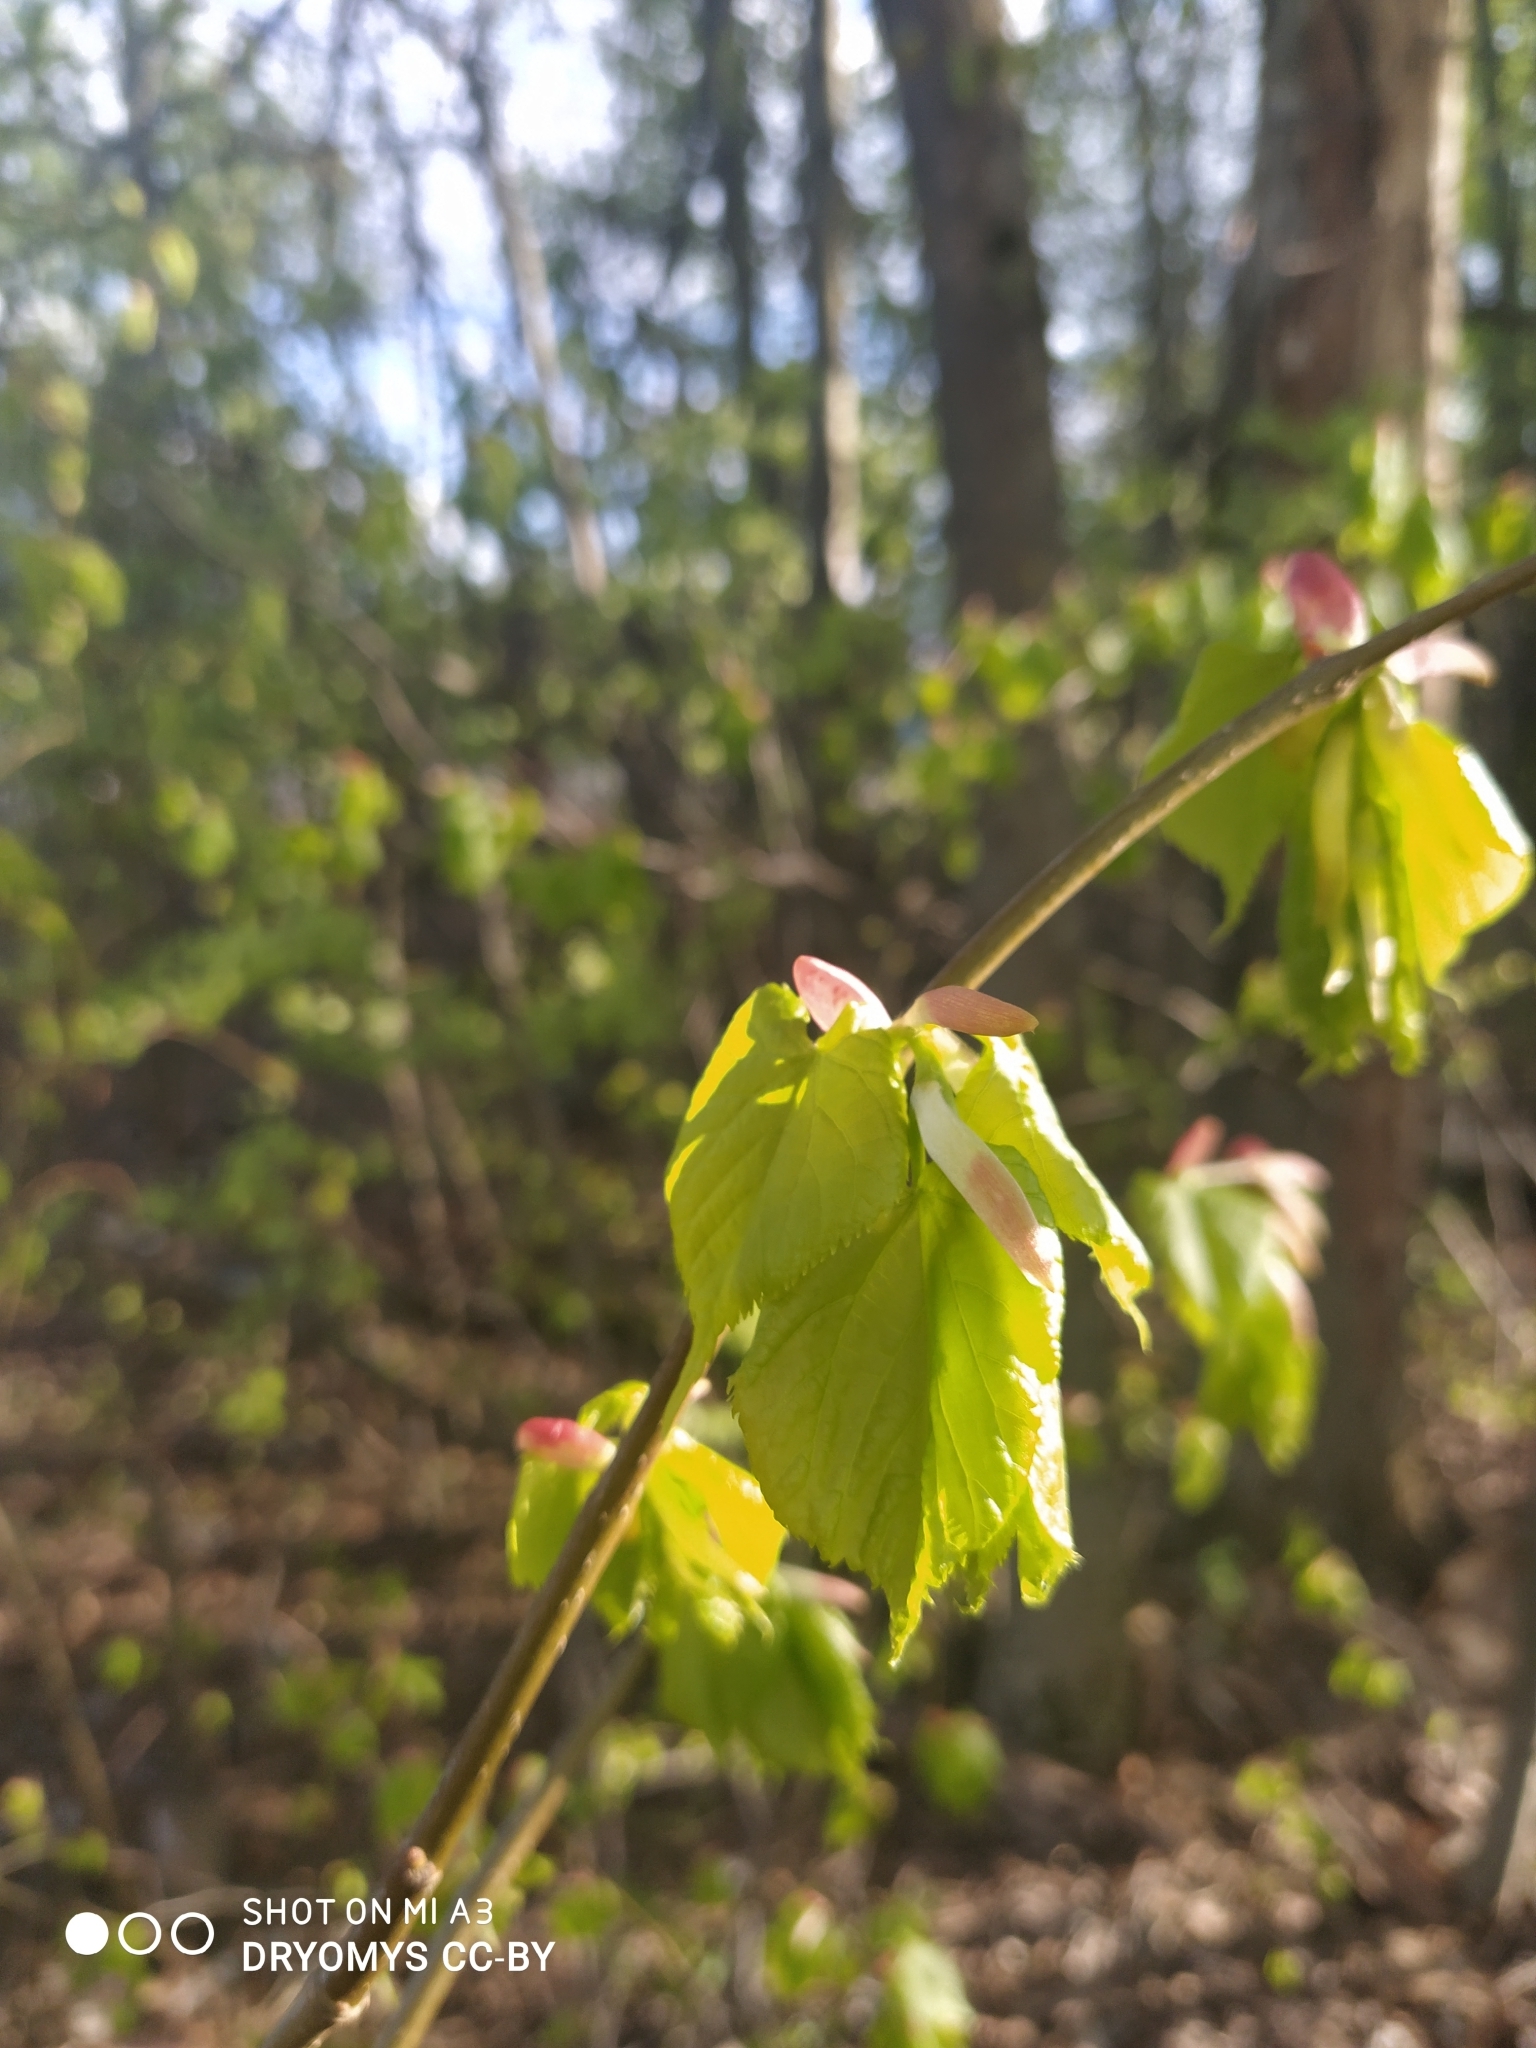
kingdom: Plantae
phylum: Tracheophyta
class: Magnoliopsida
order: Malvales
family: Malvaceae
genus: Tilia
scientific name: Tilia cordata
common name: Small-leaved lime
